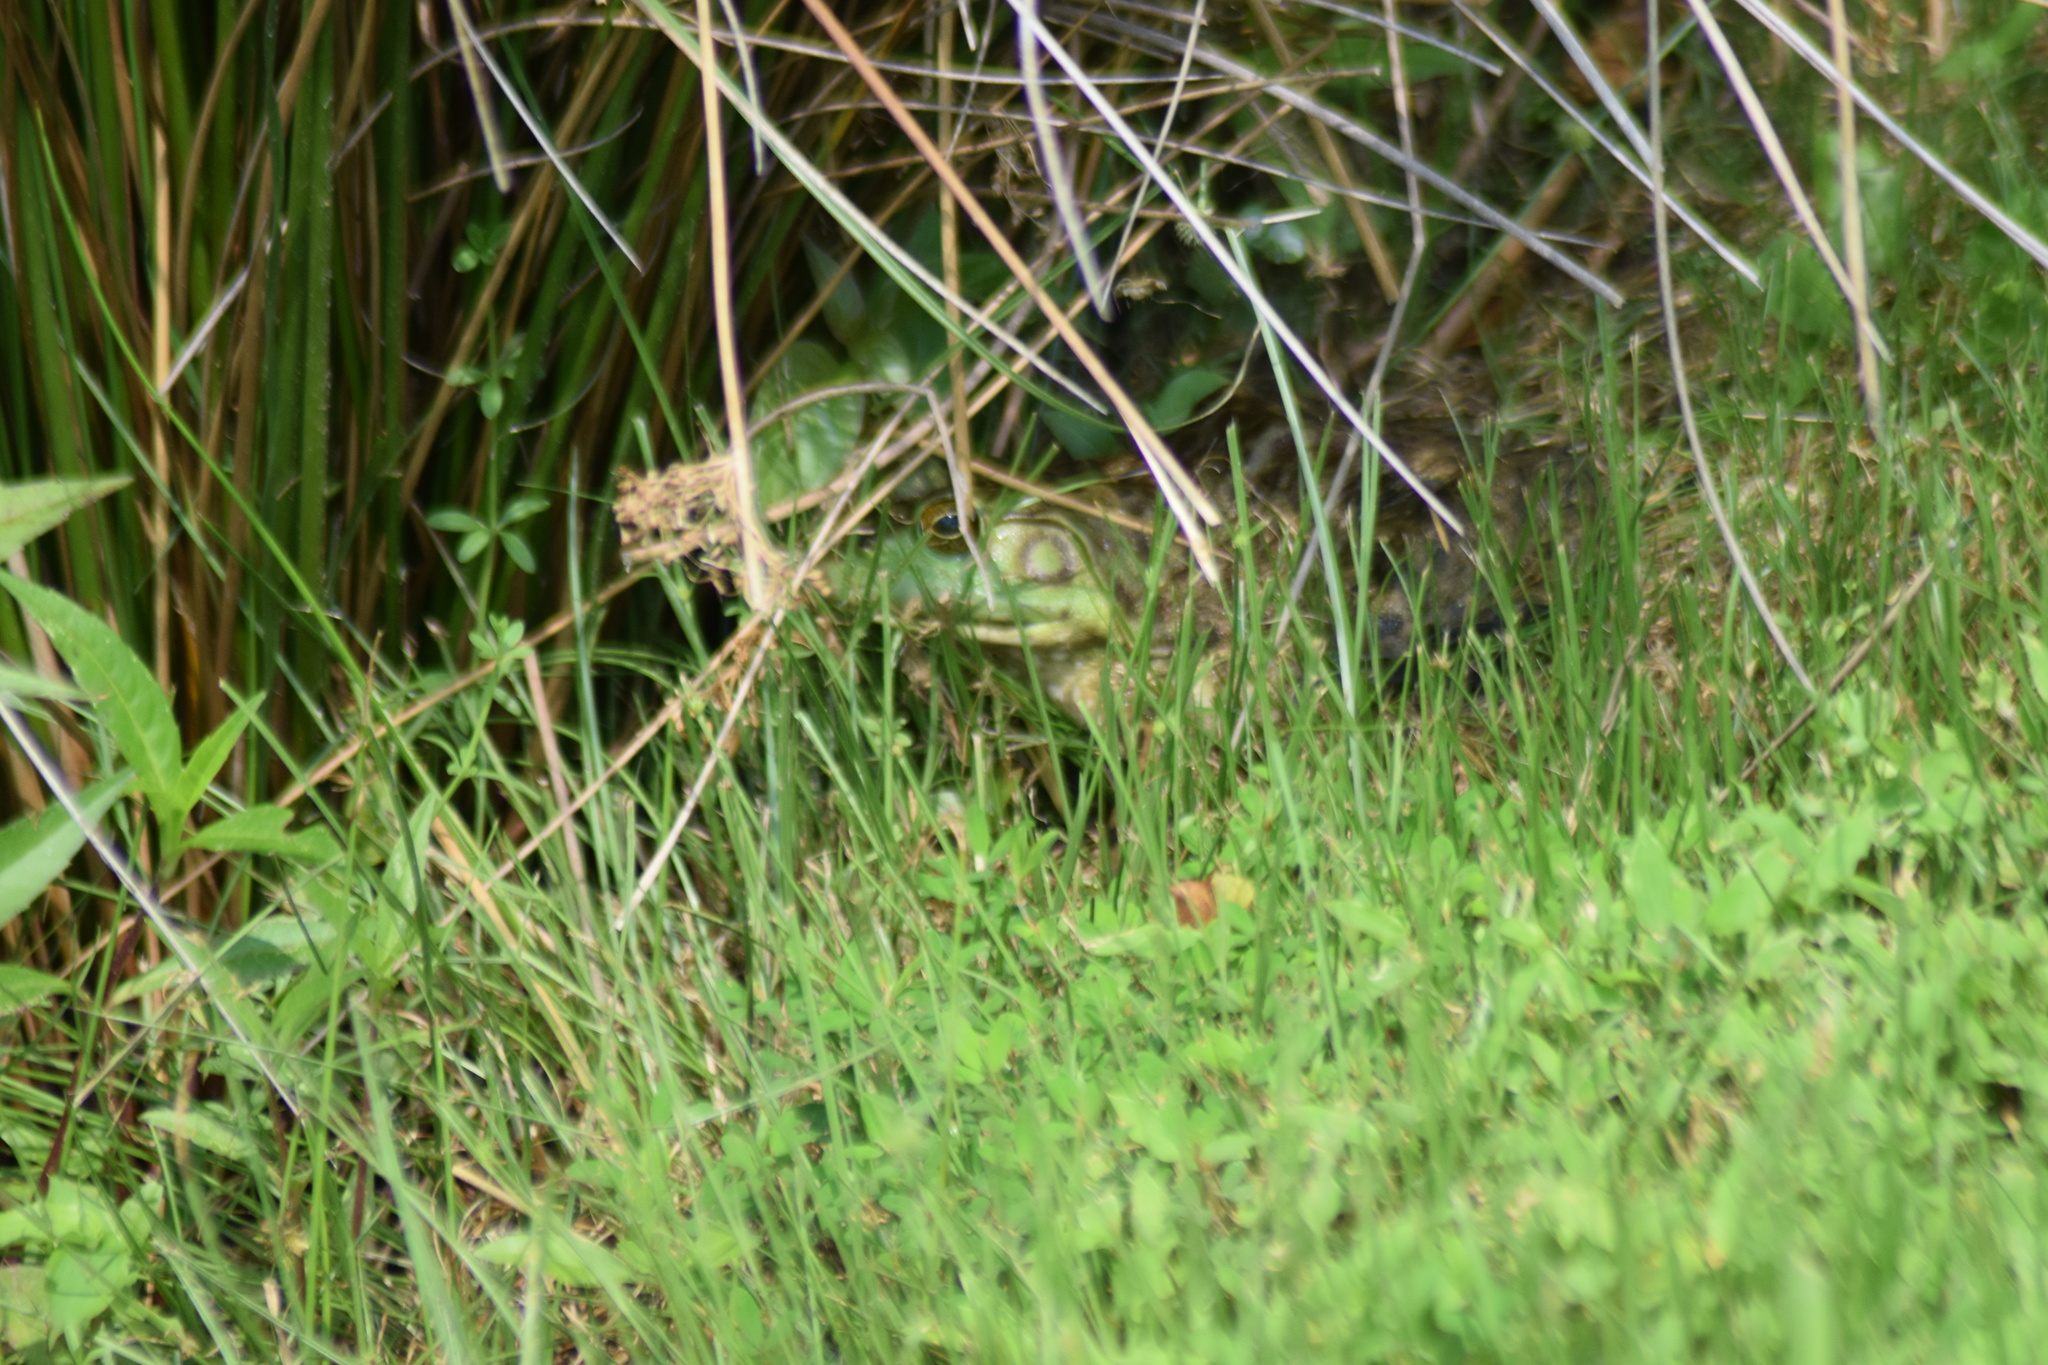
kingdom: Animalia
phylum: Chordata
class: Amphibia
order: Anura
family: Ranidae
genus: Lithobates
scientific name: Lithobates catesbeianus
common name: American bullfrog
